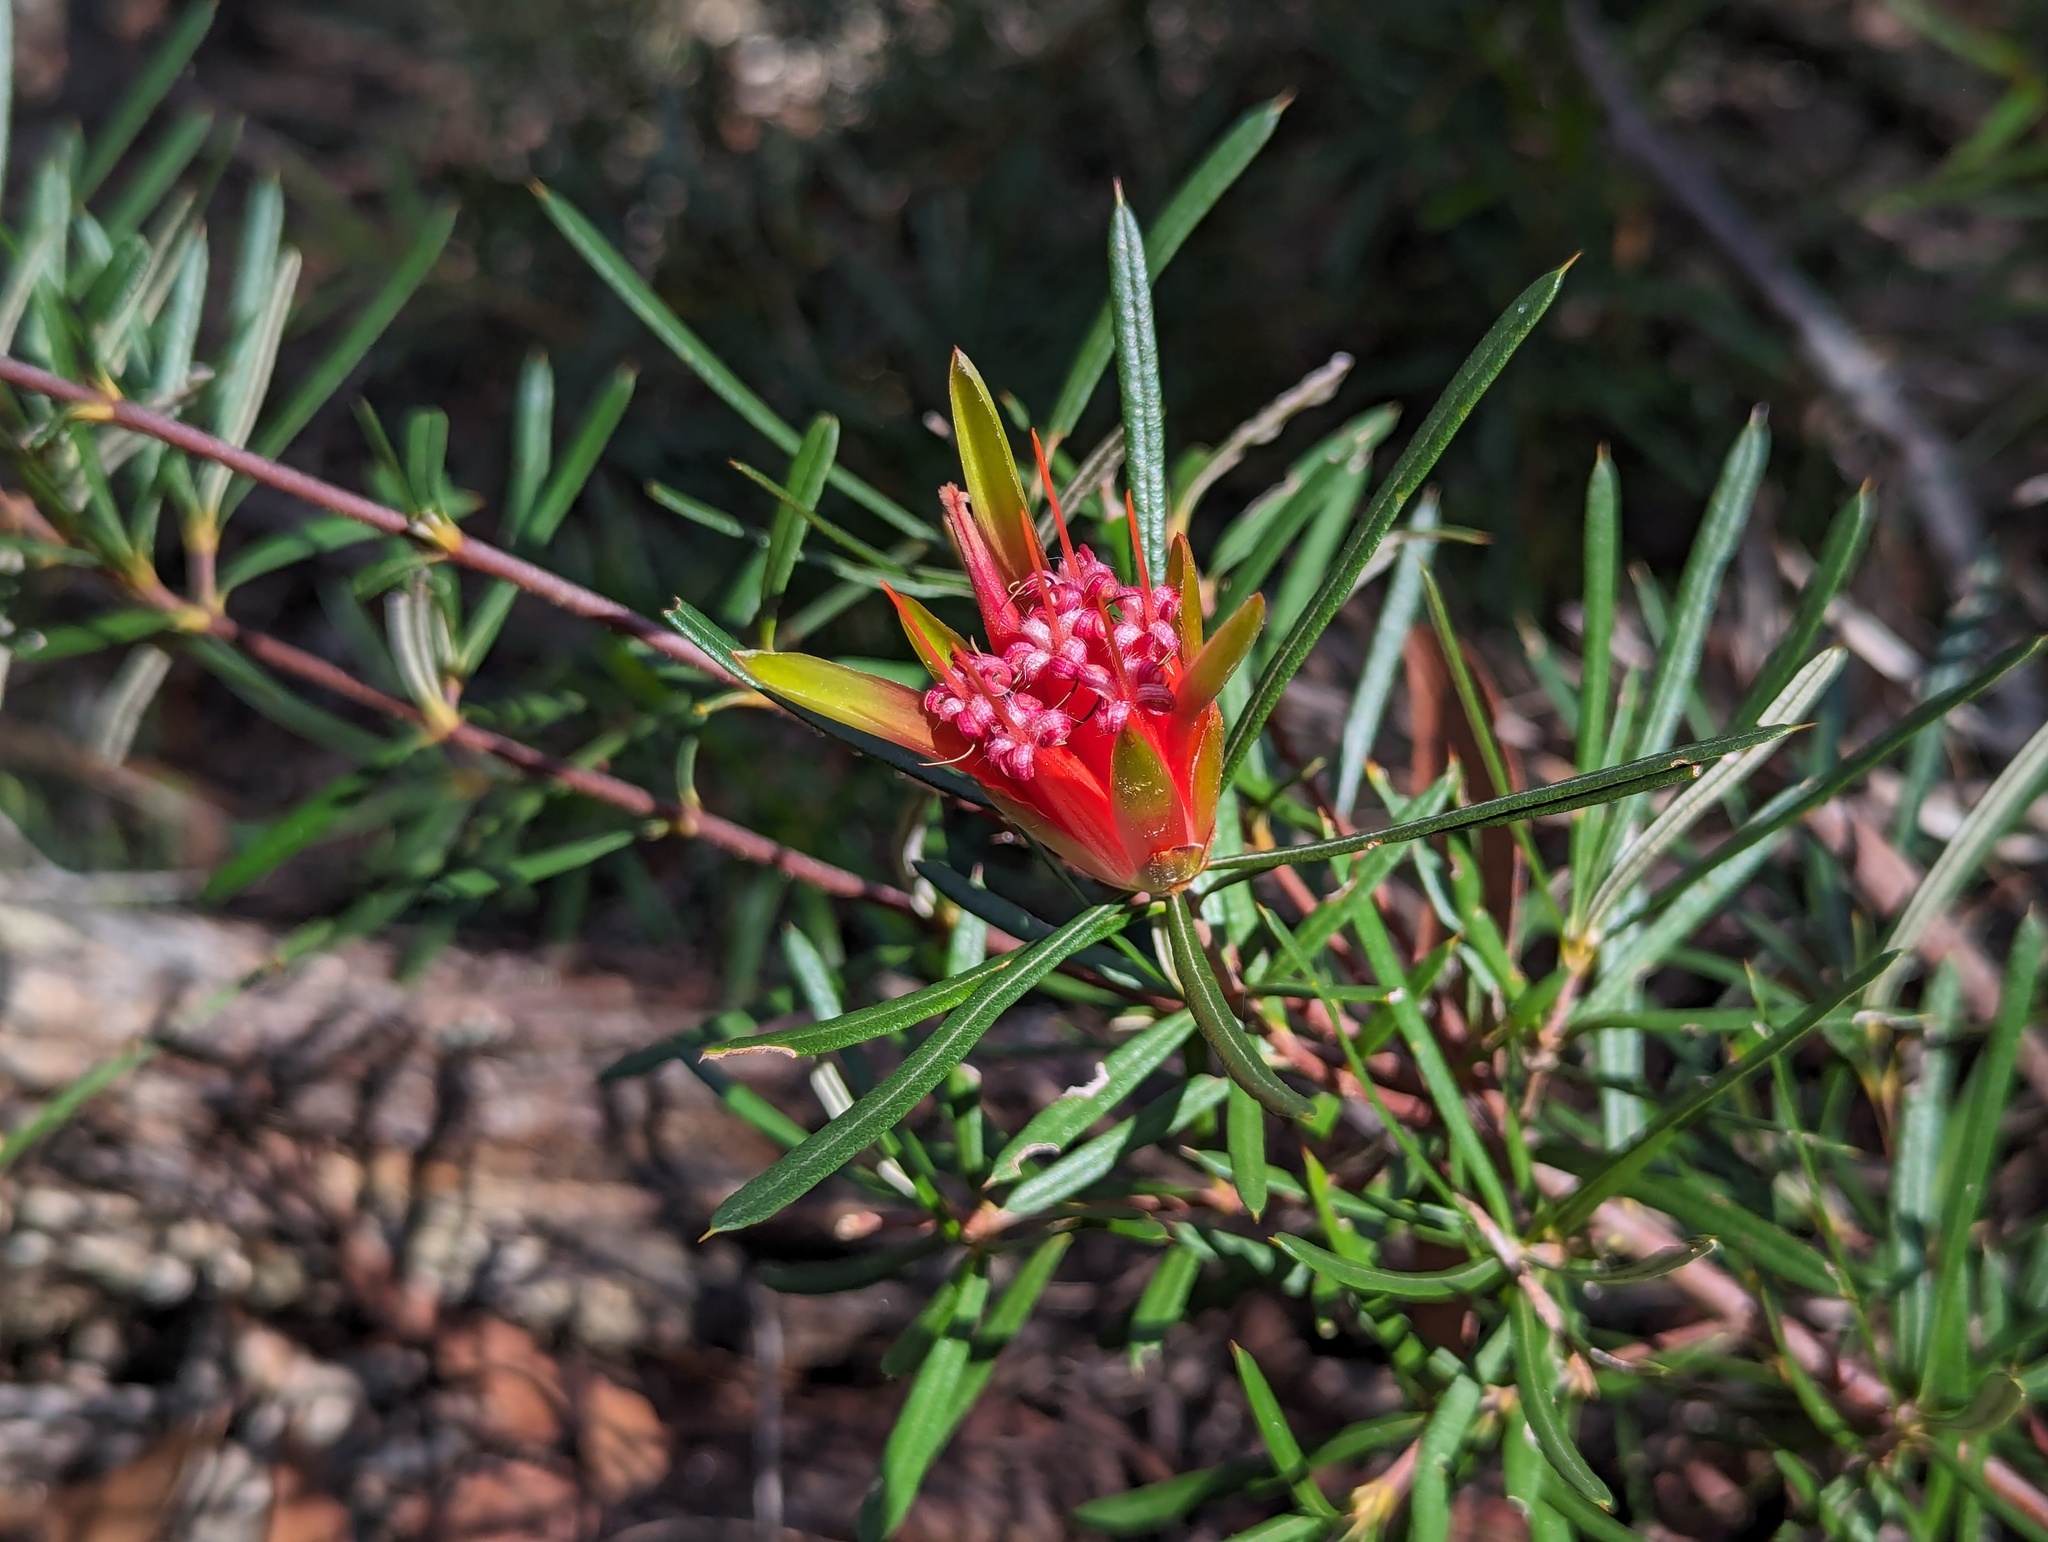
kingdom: Plantae
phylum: Tracheophyta
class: Magnoliopsida
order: Proteales
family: Proteaceae
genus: Lambertia
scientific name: Lambertia formosa
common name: Mountain-devil
